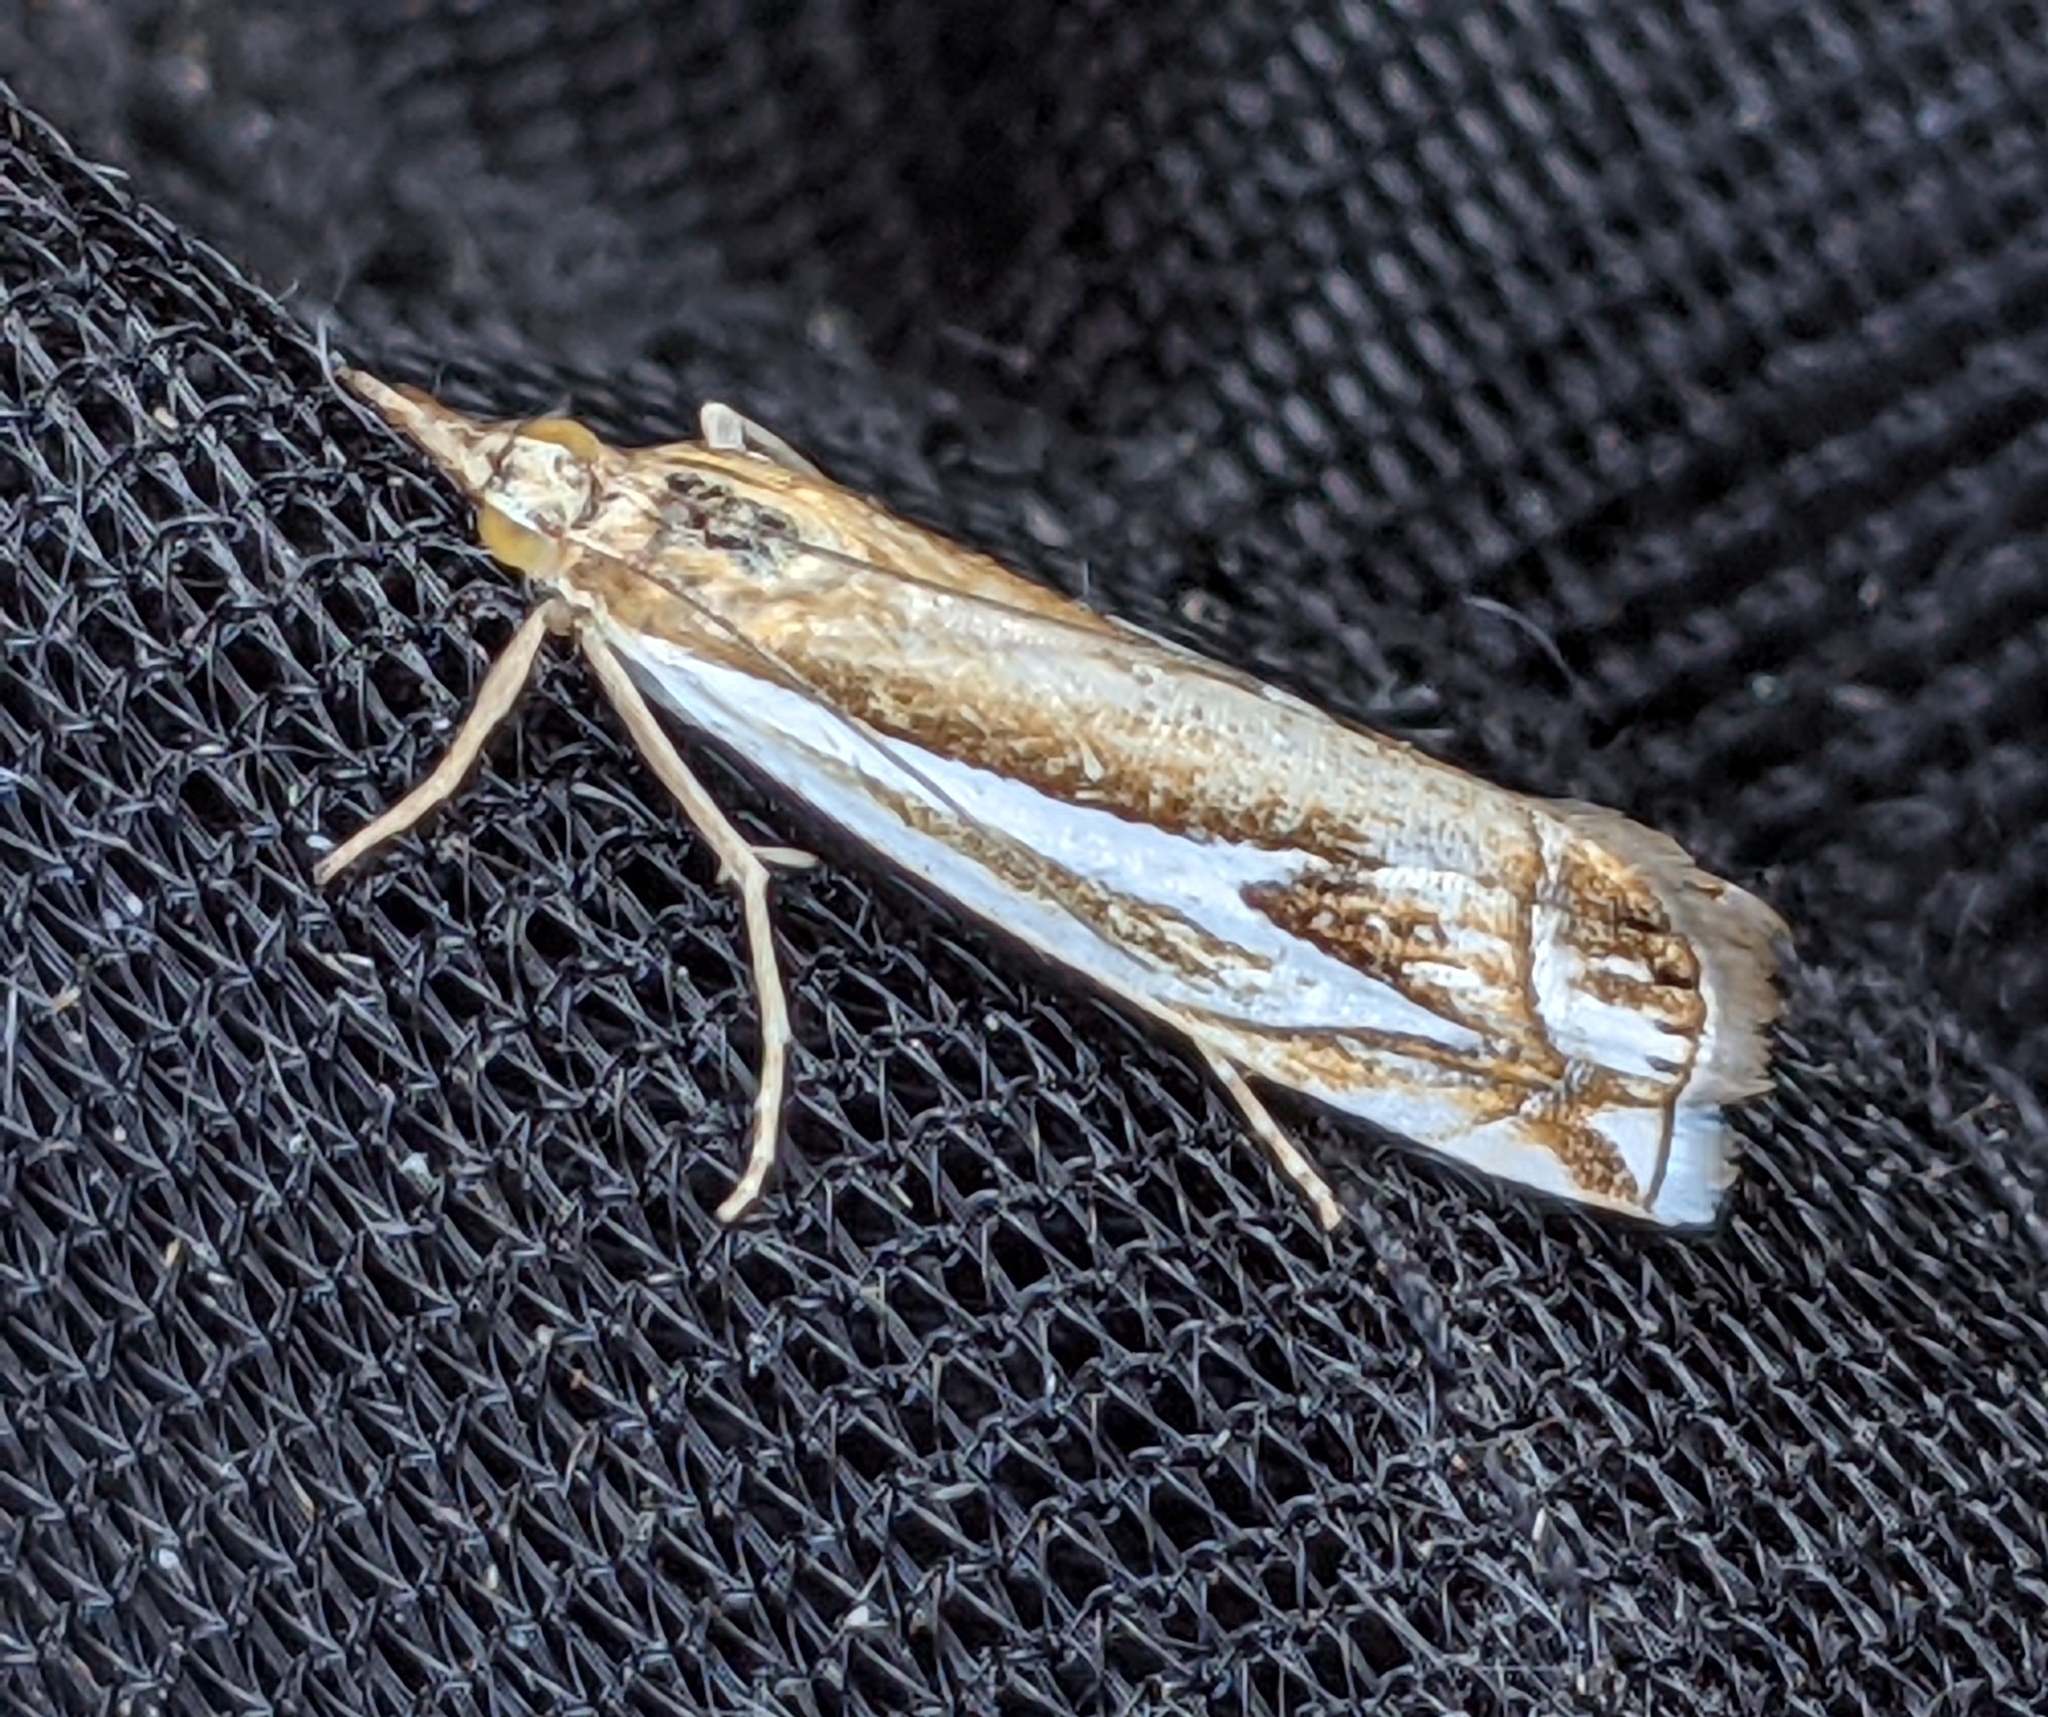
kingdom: Animalia
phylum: Arthropoda
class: Insecta
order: Lepidoptera
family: Crambidae
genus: Crambus
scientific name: Crambus bidens
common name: Forked grass-veneer
